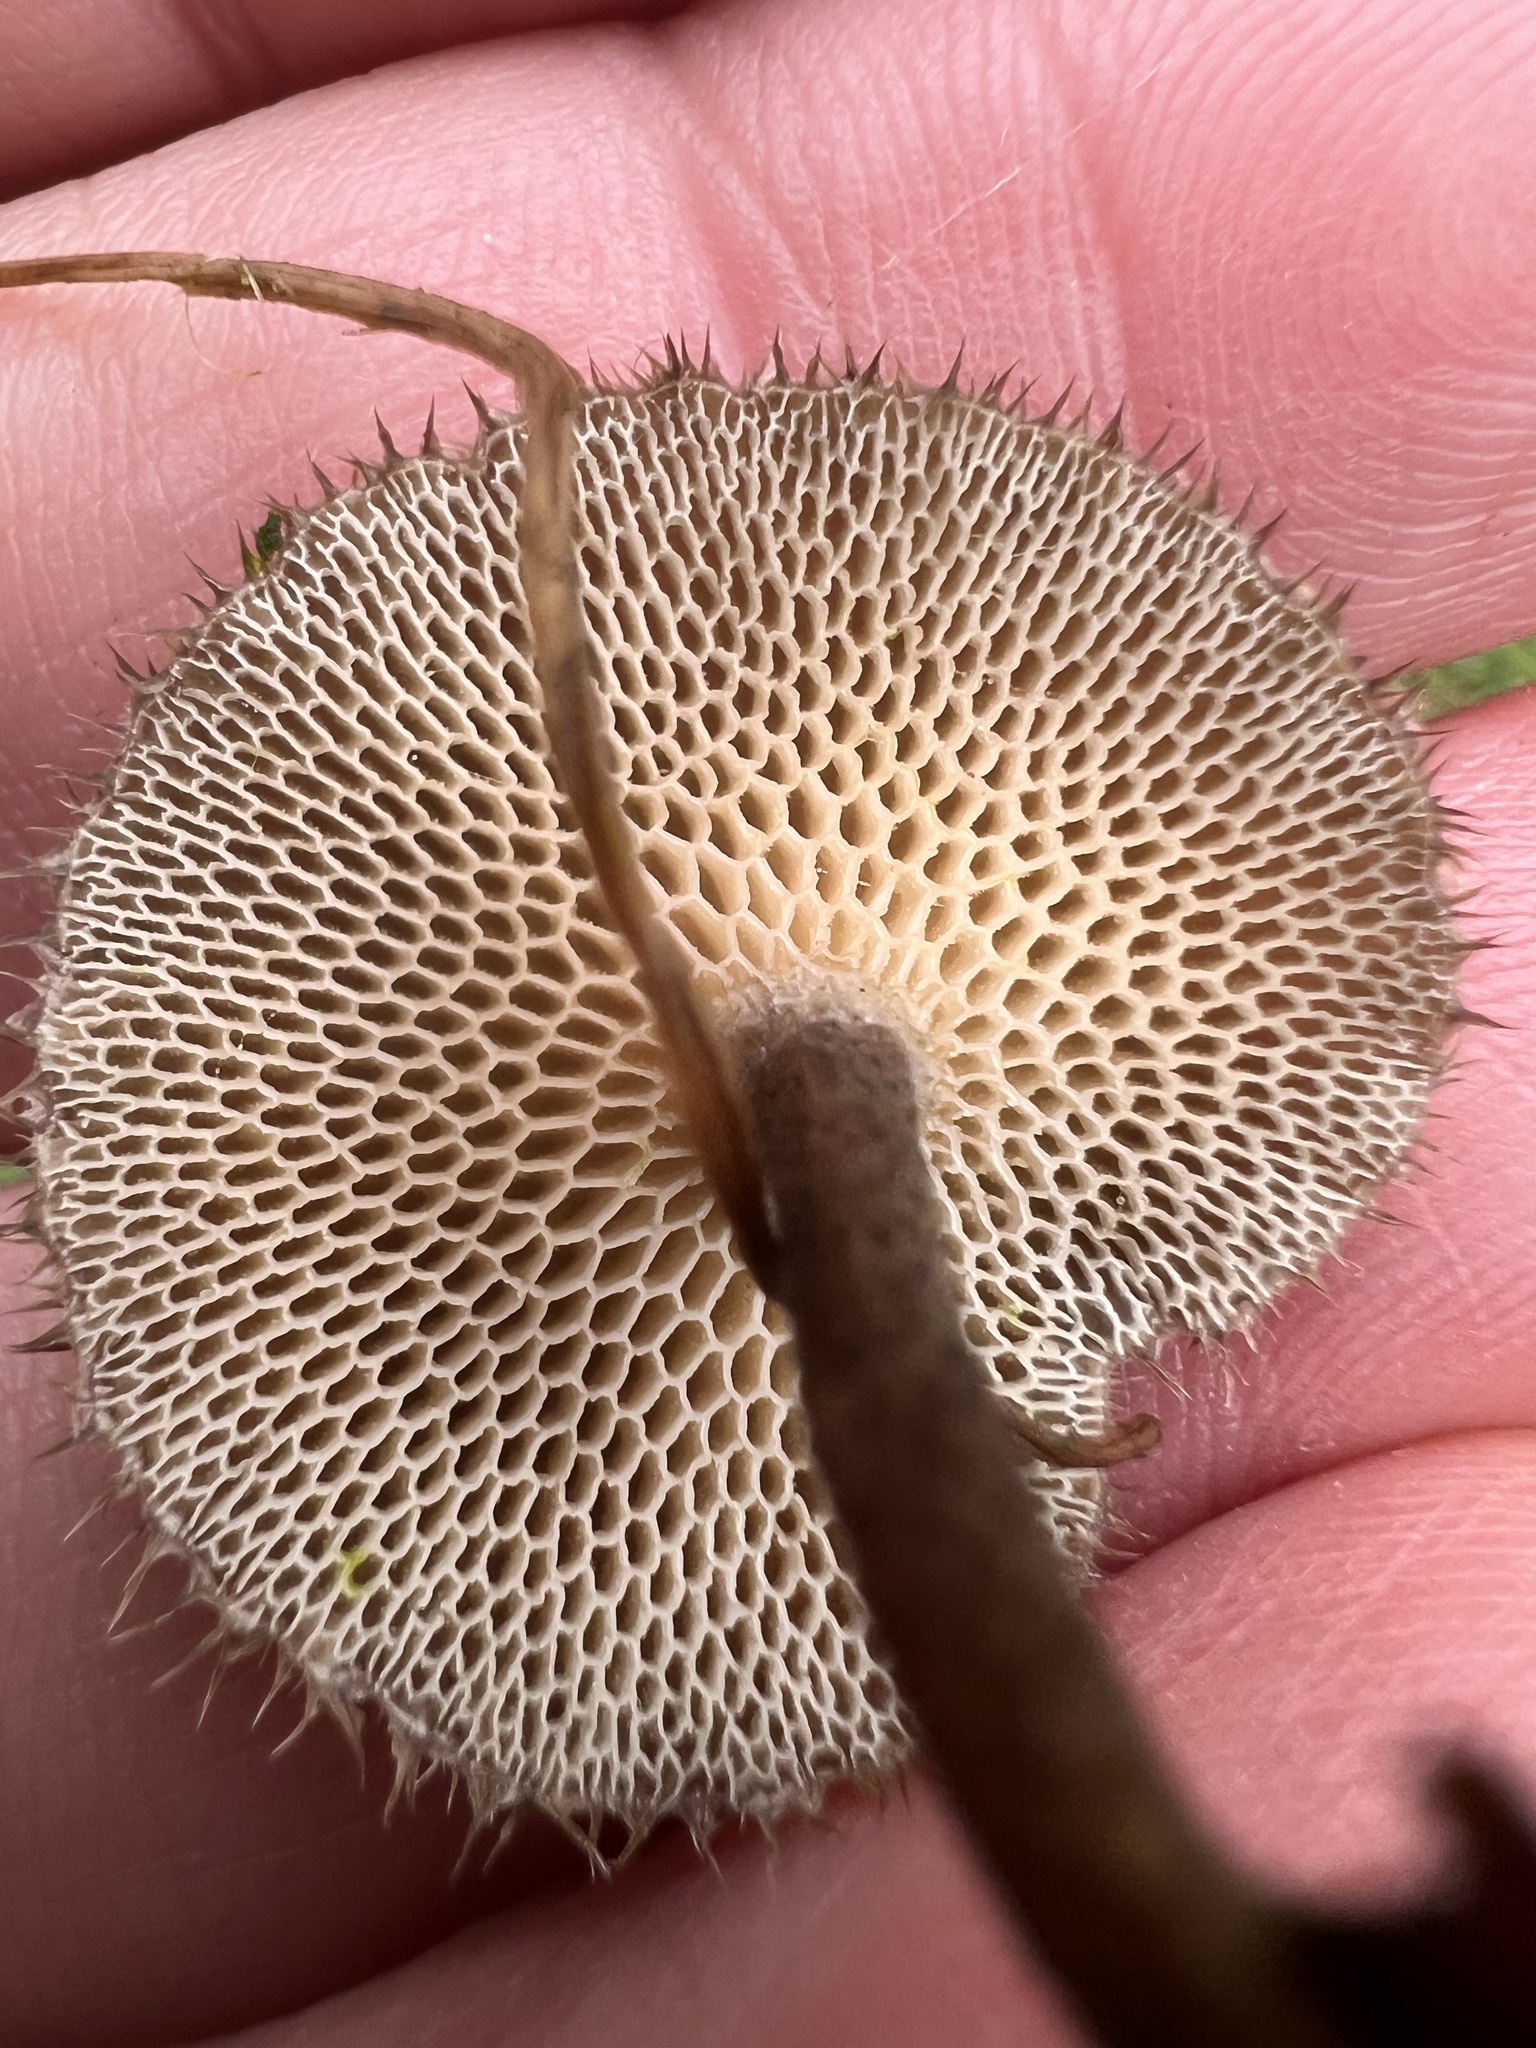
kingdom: Fungi
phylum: Basidiomycota
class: Agaricomycetes
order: Polyporales
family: Polyporaceae
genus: Lentinus
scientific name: Lentinus arcularius
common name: Spring polypore
